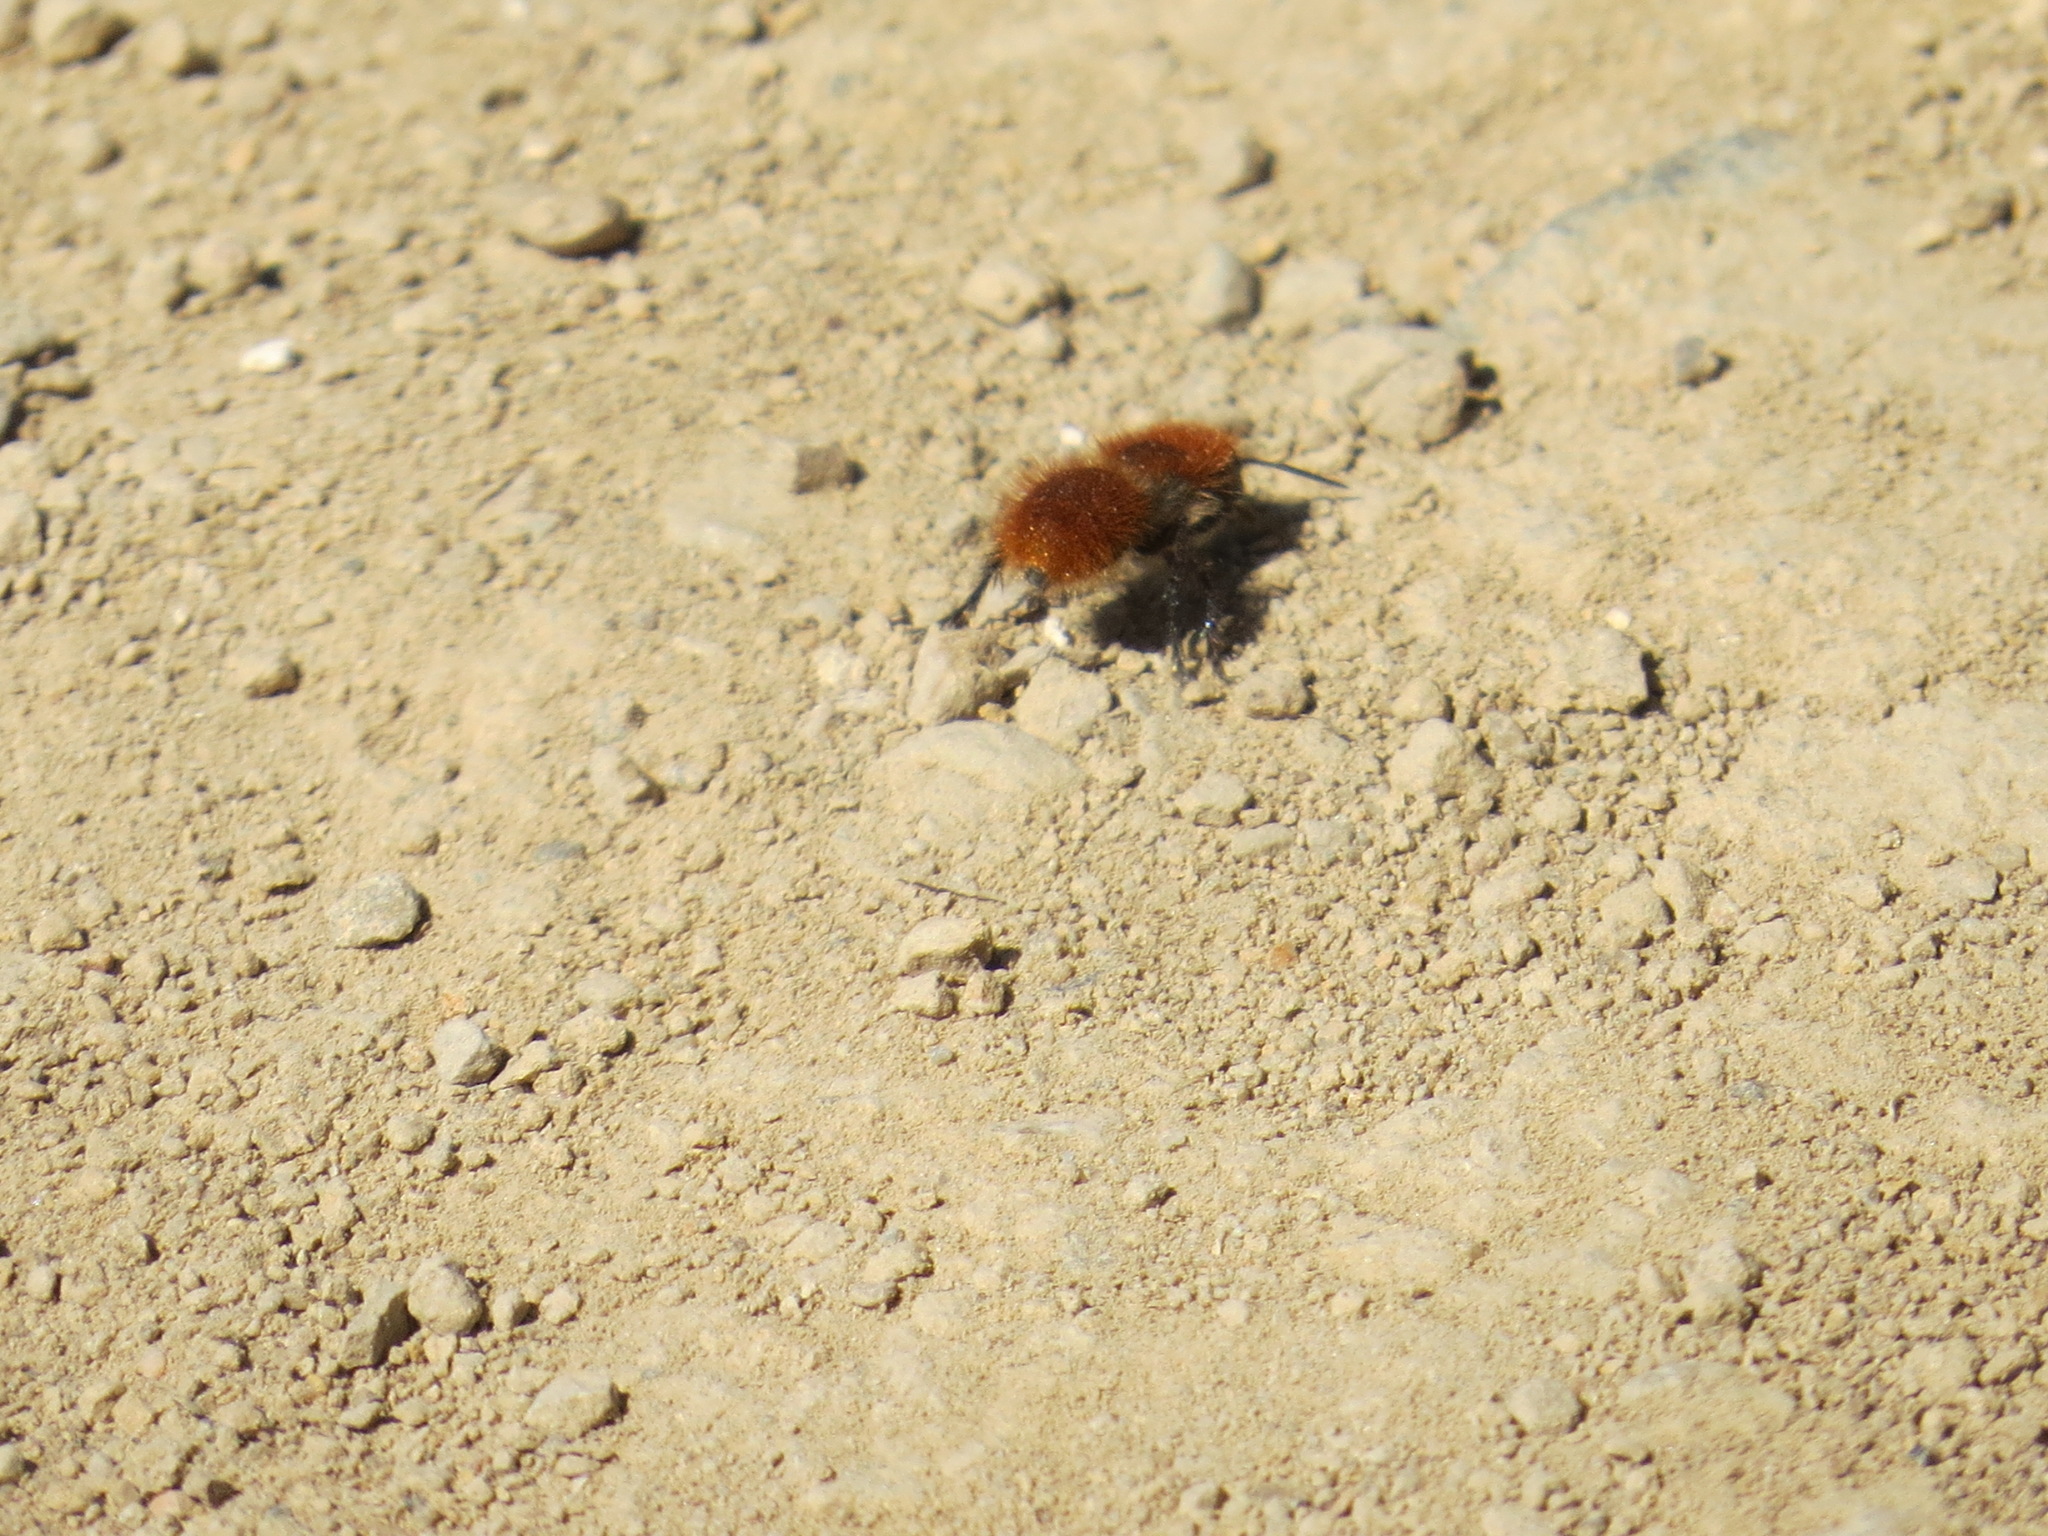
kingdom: Animalia
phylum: Arthropoda
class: Insecta
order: Hymenoptera
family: Mutillidae
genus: Dasymutilla
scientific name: Dasymutilla
